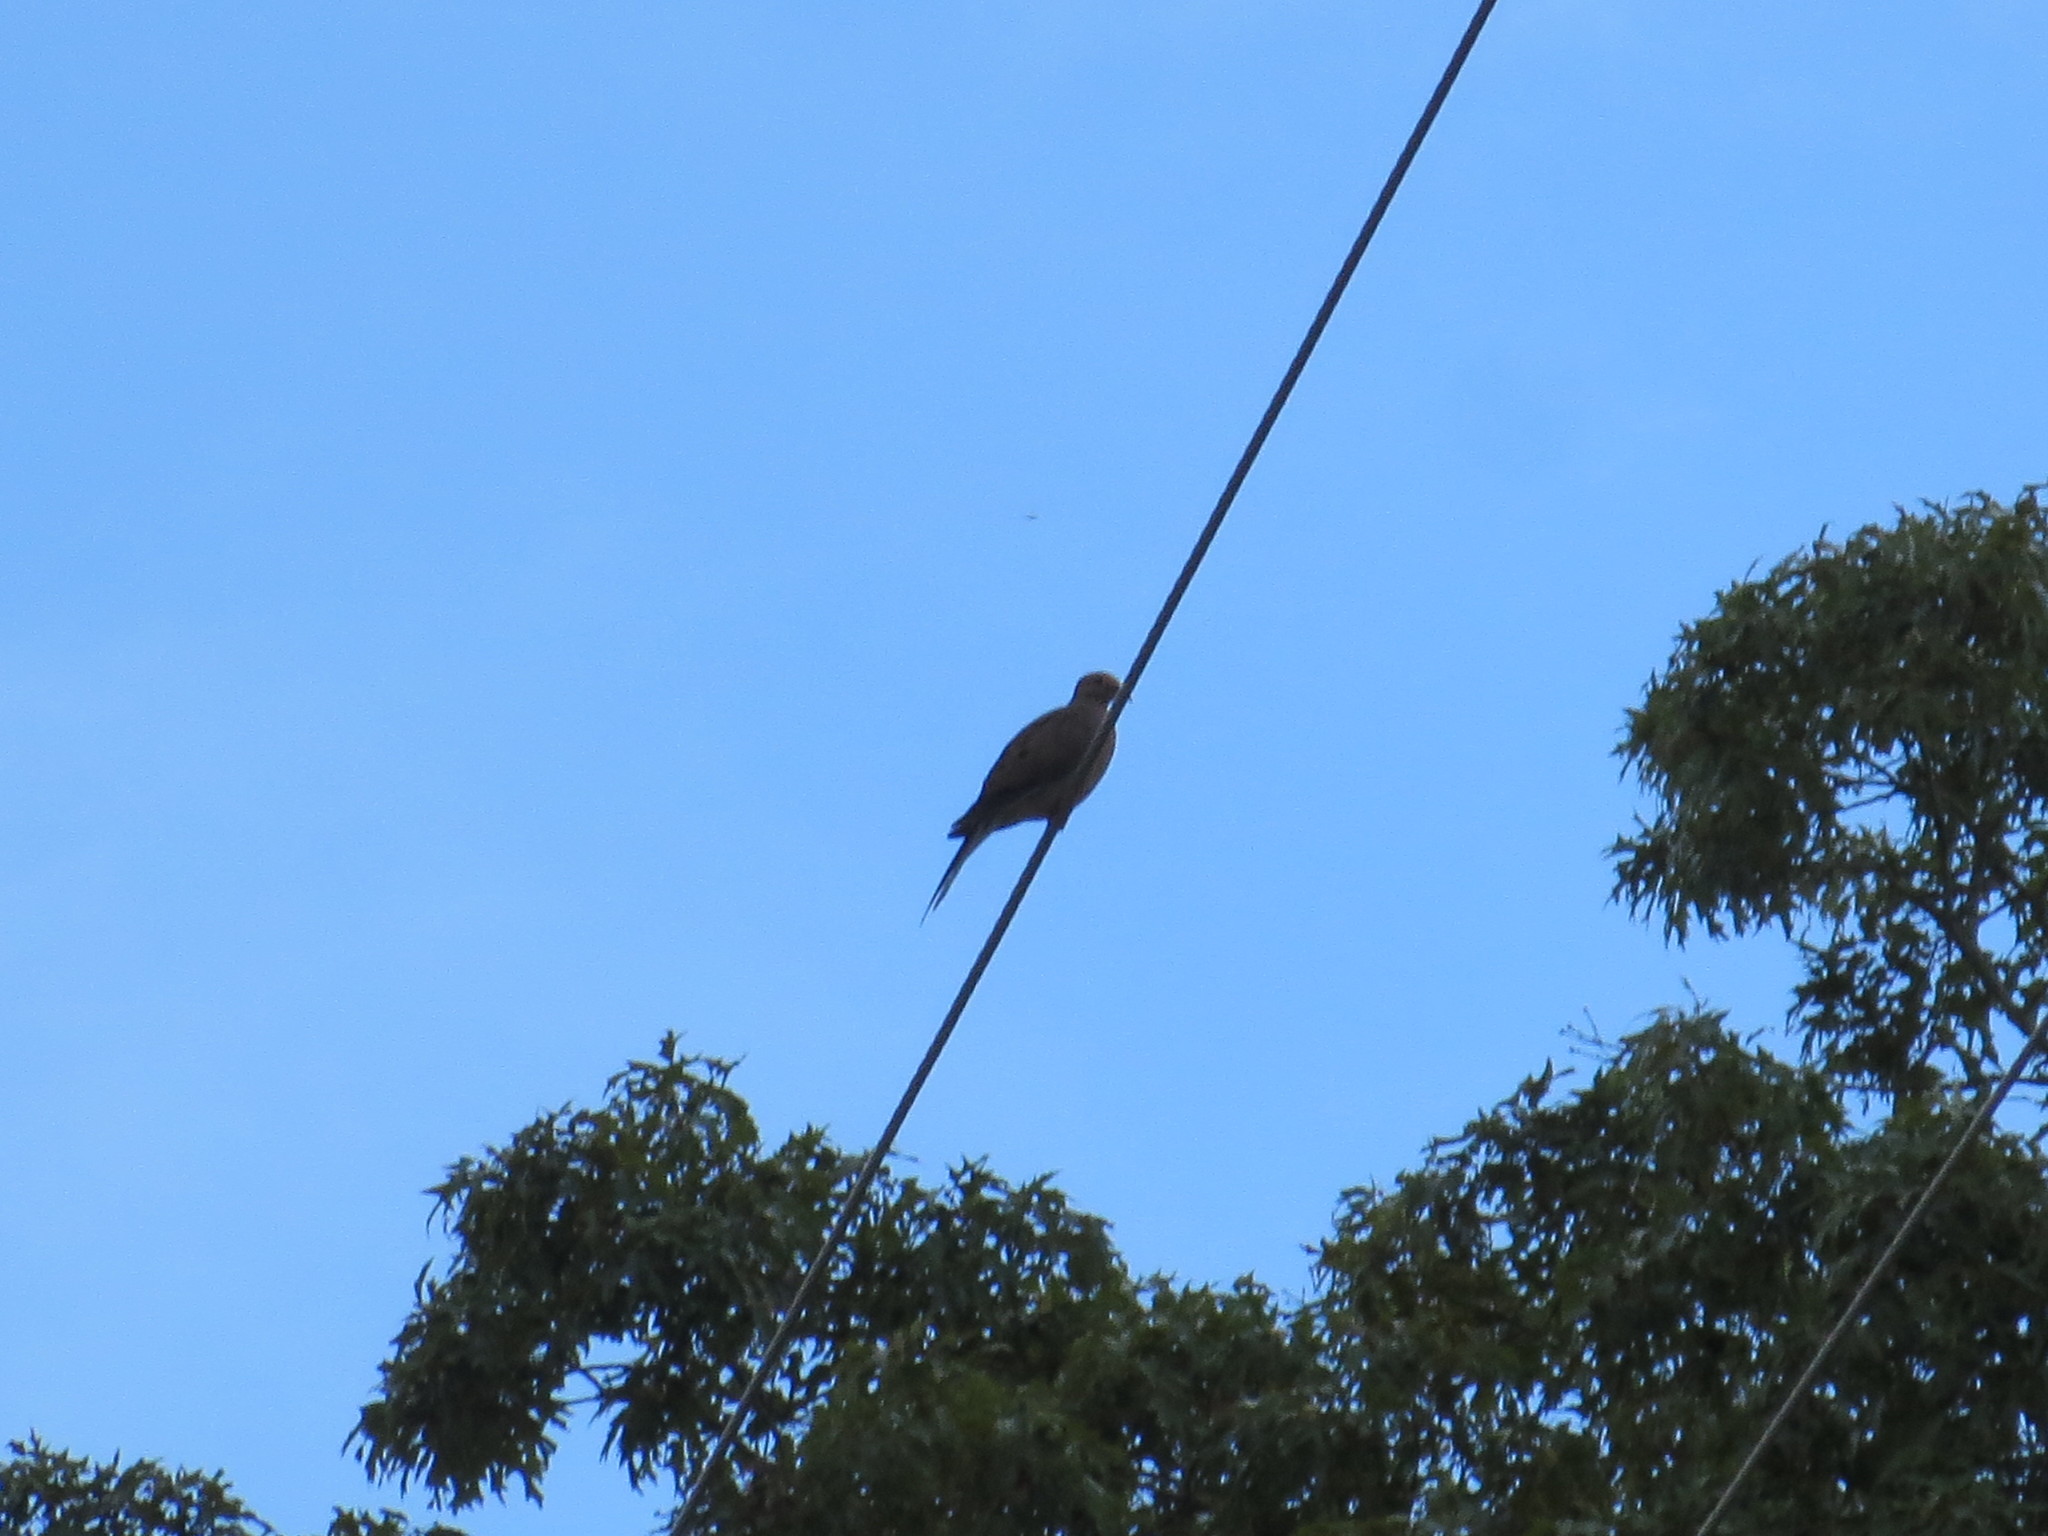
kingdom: Animalia
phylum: Chordata
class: Aves
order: Columbiformes
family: Columbidae
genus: Zenaida
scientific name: Zenaida macroura
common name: Mourning dove
